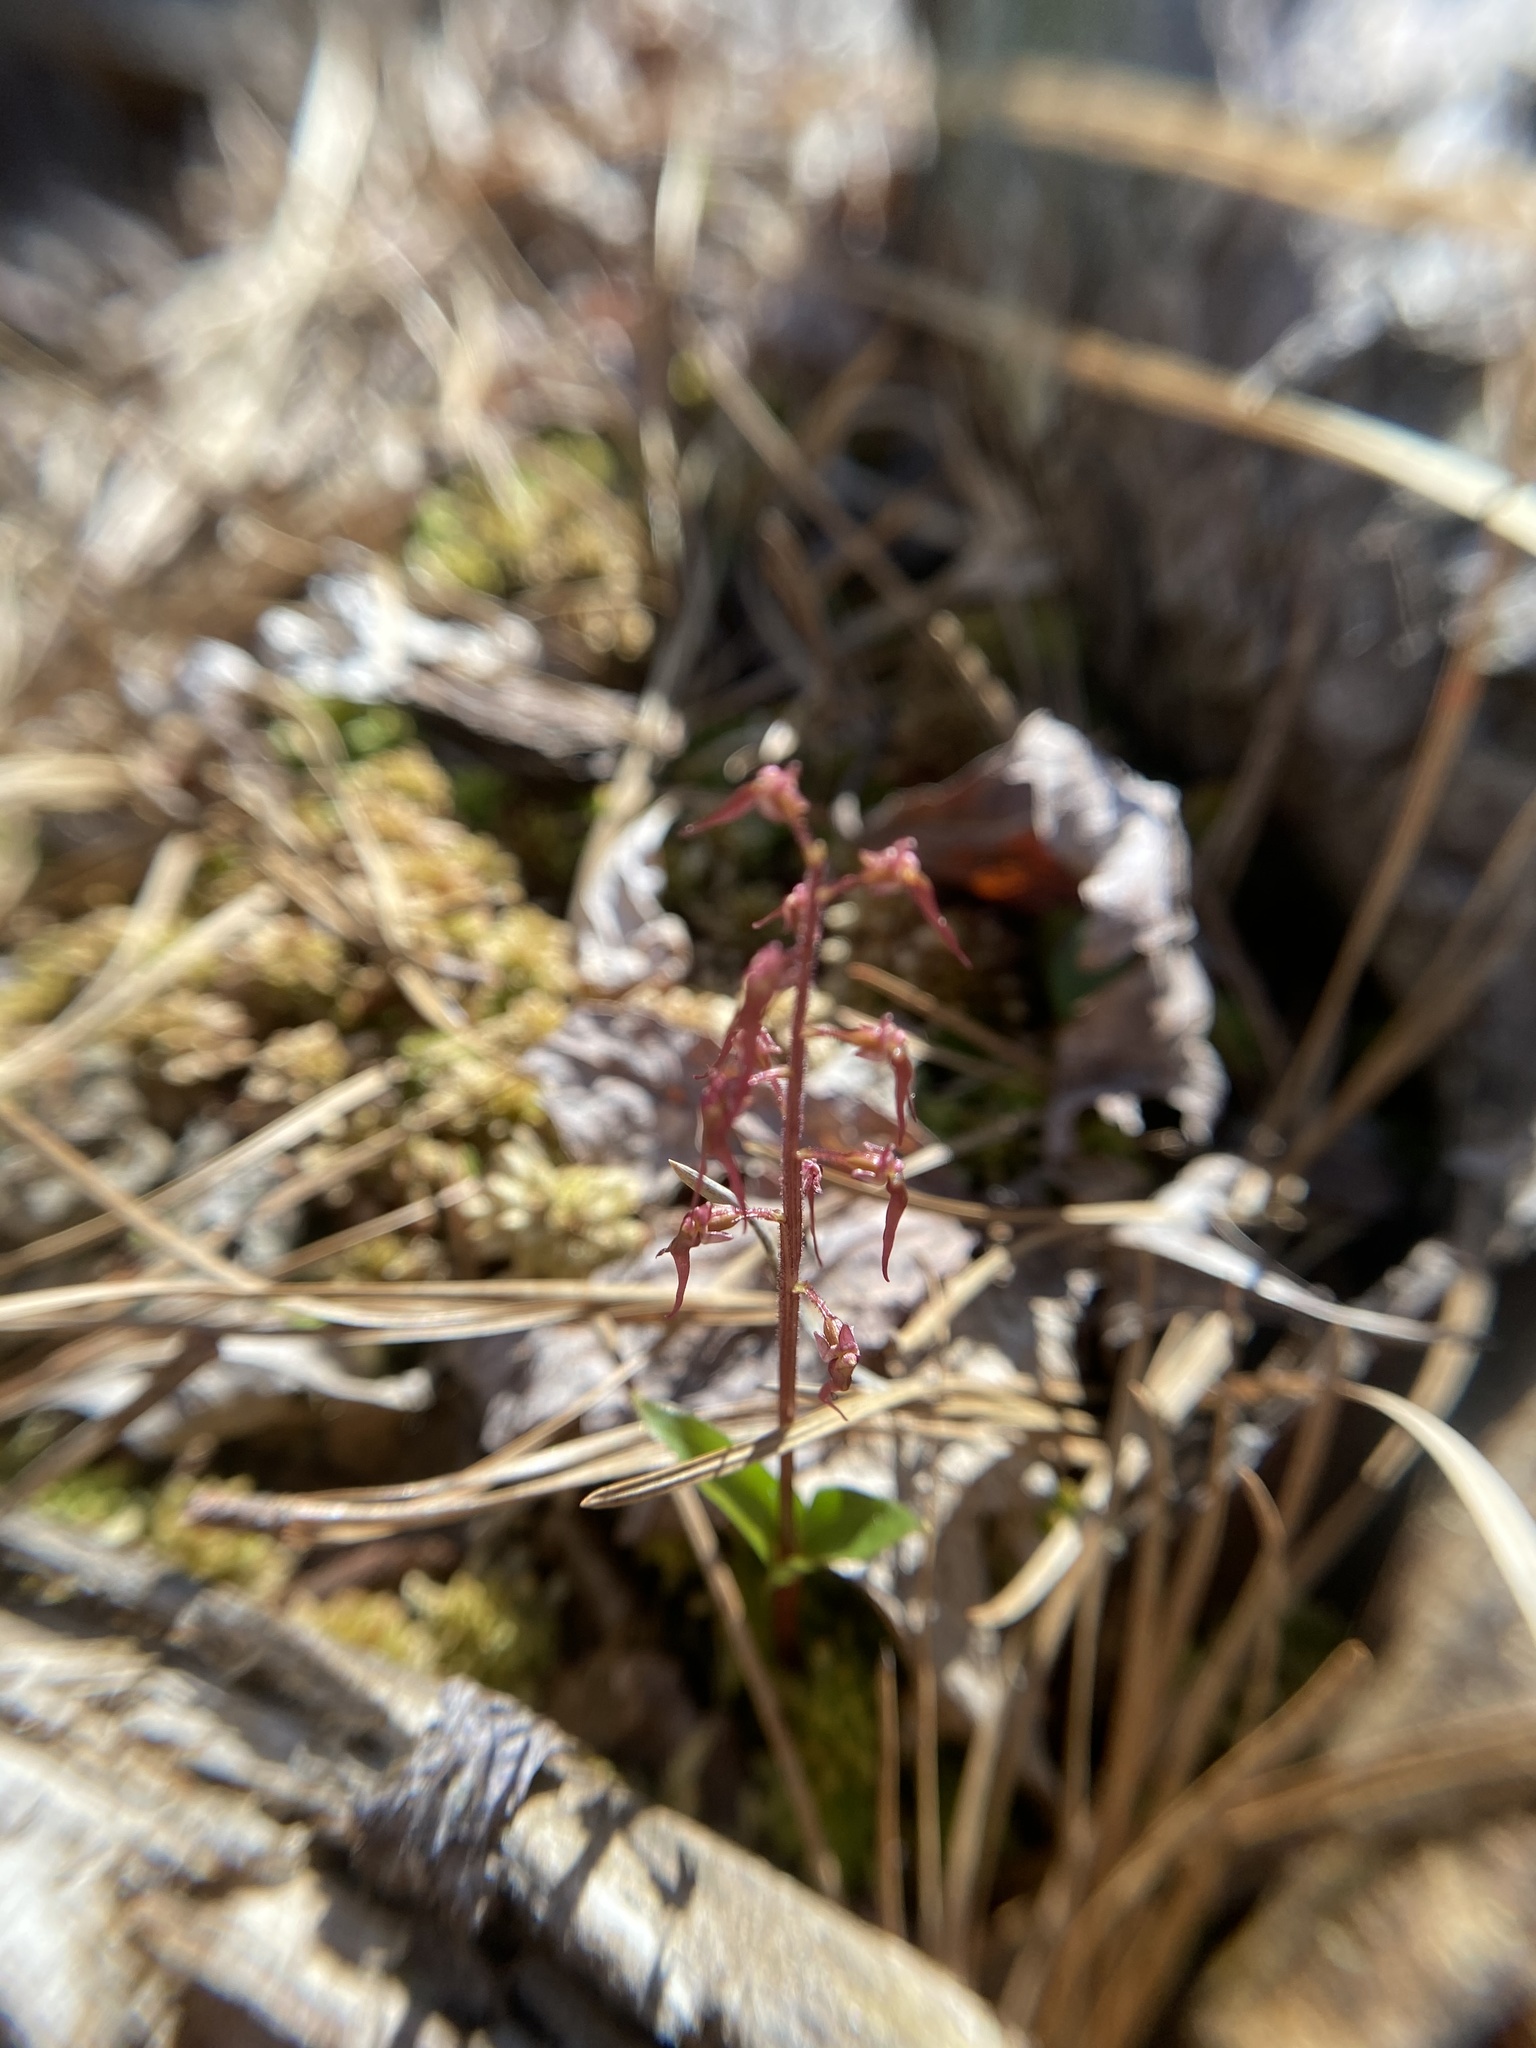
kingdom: Plantae
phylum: Tracheophyta
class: Liliopsida
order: Asparagales
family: Orchidaceae
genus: Neottia
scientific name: Neottia bifolia
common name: Southern twayblade
